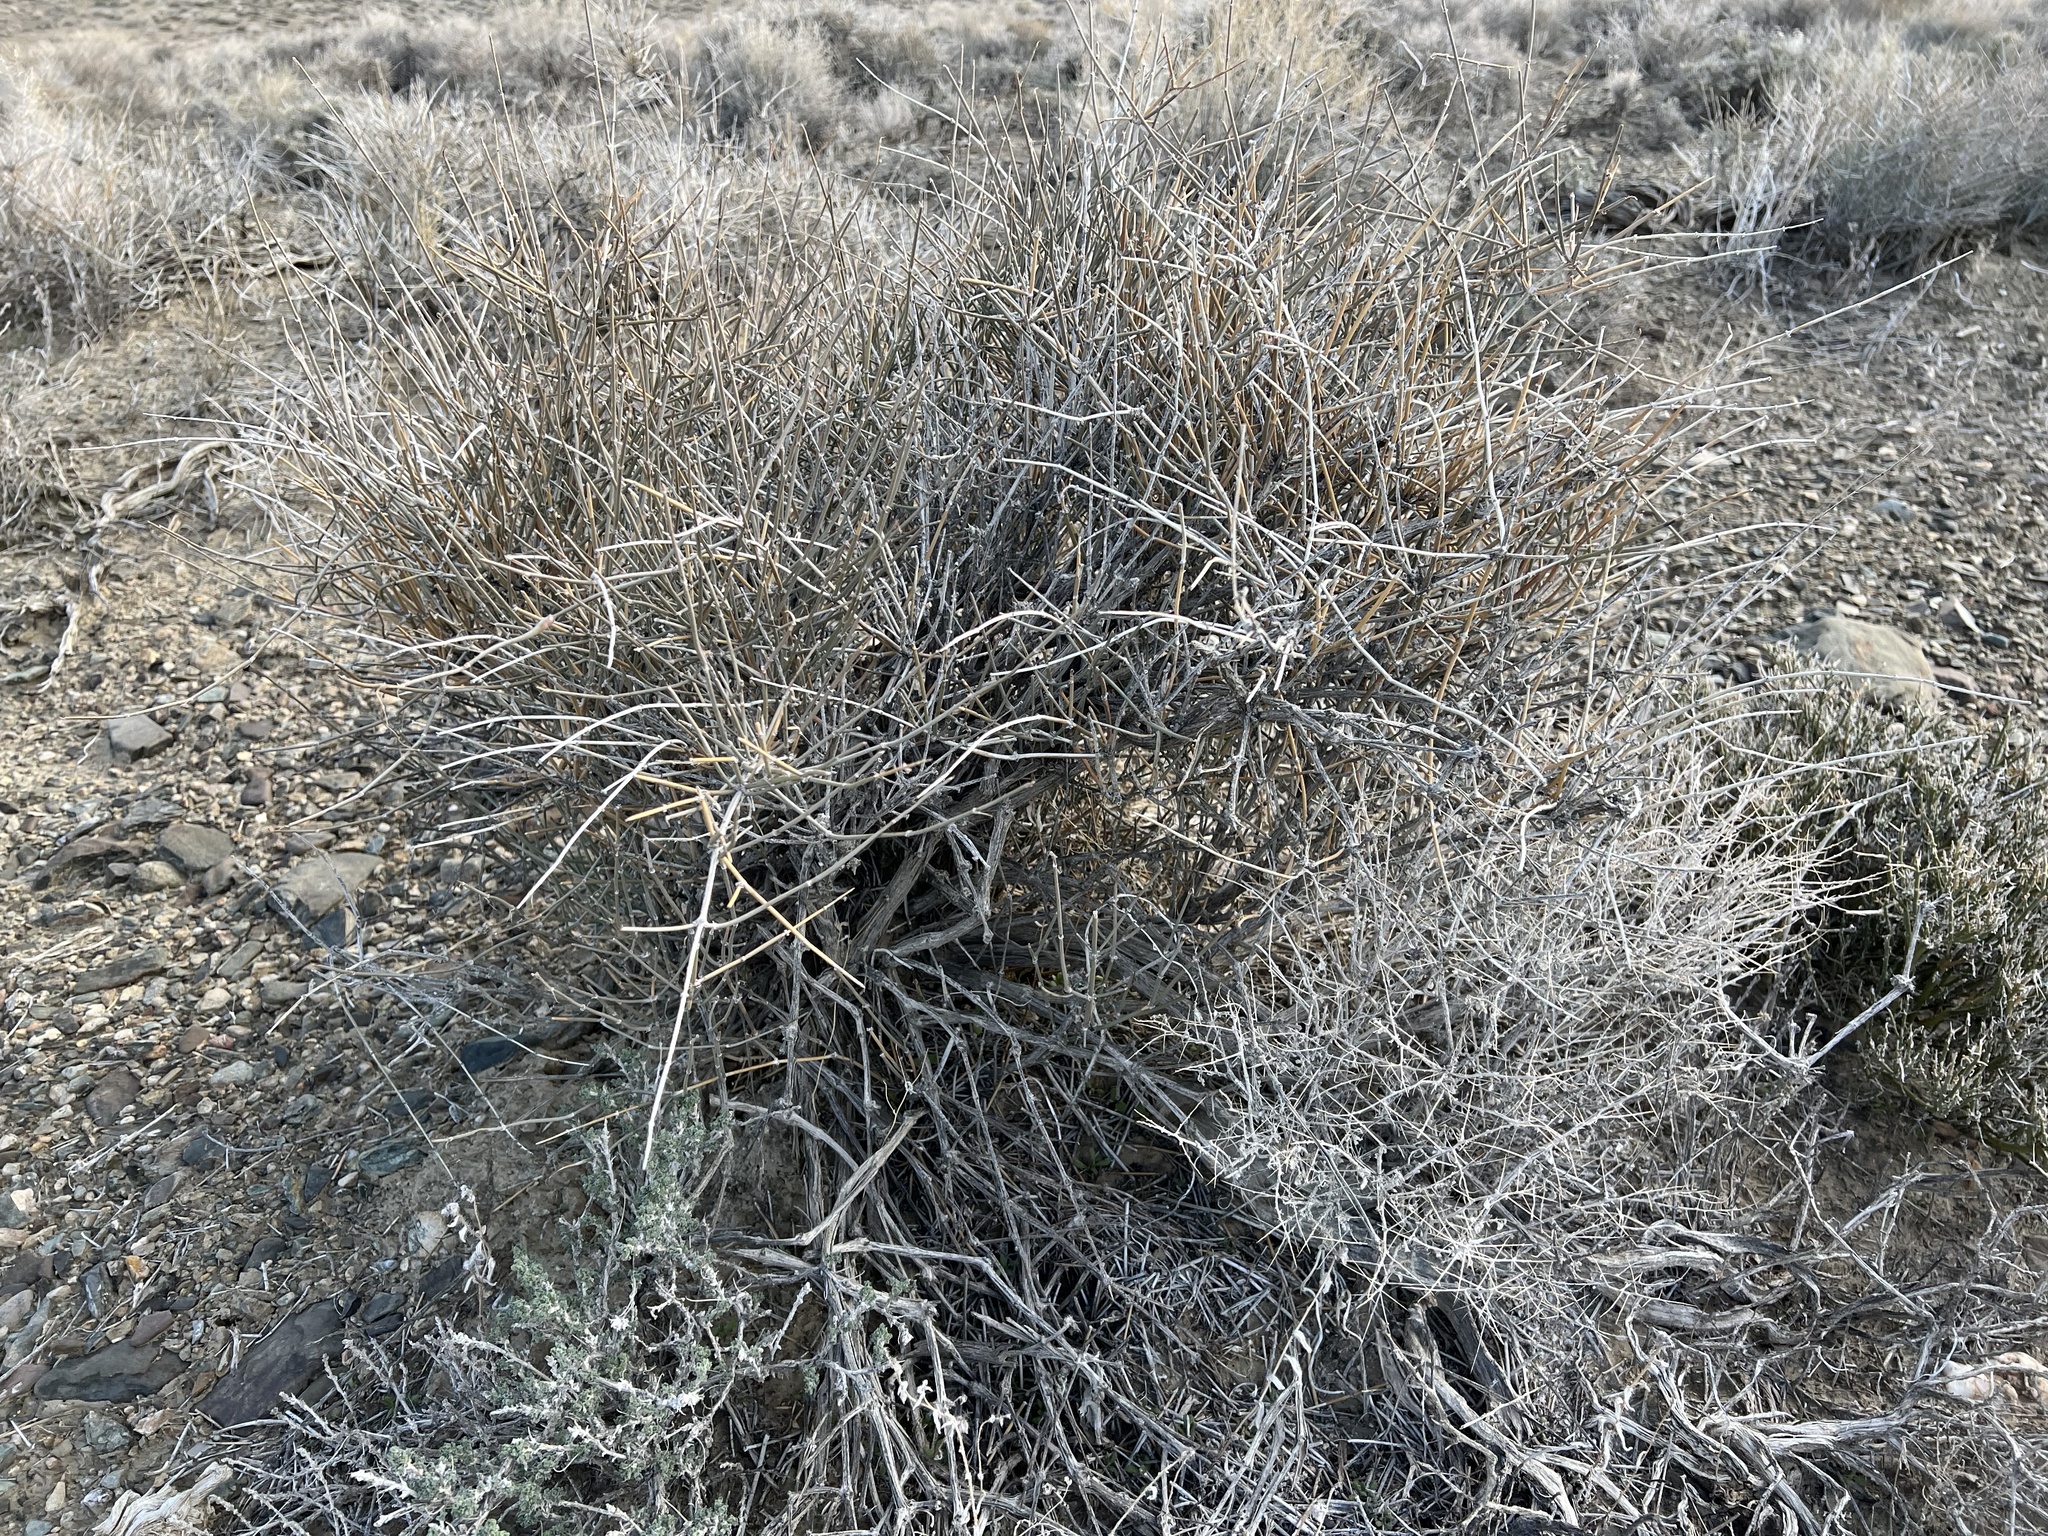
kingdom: Plantae
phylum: Tracheophyta
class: Gnetopsida
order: Ephedrales
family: Ephedraceae
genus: Ephedra
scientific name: Ephedra nevadensis
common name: Gray ephedra
